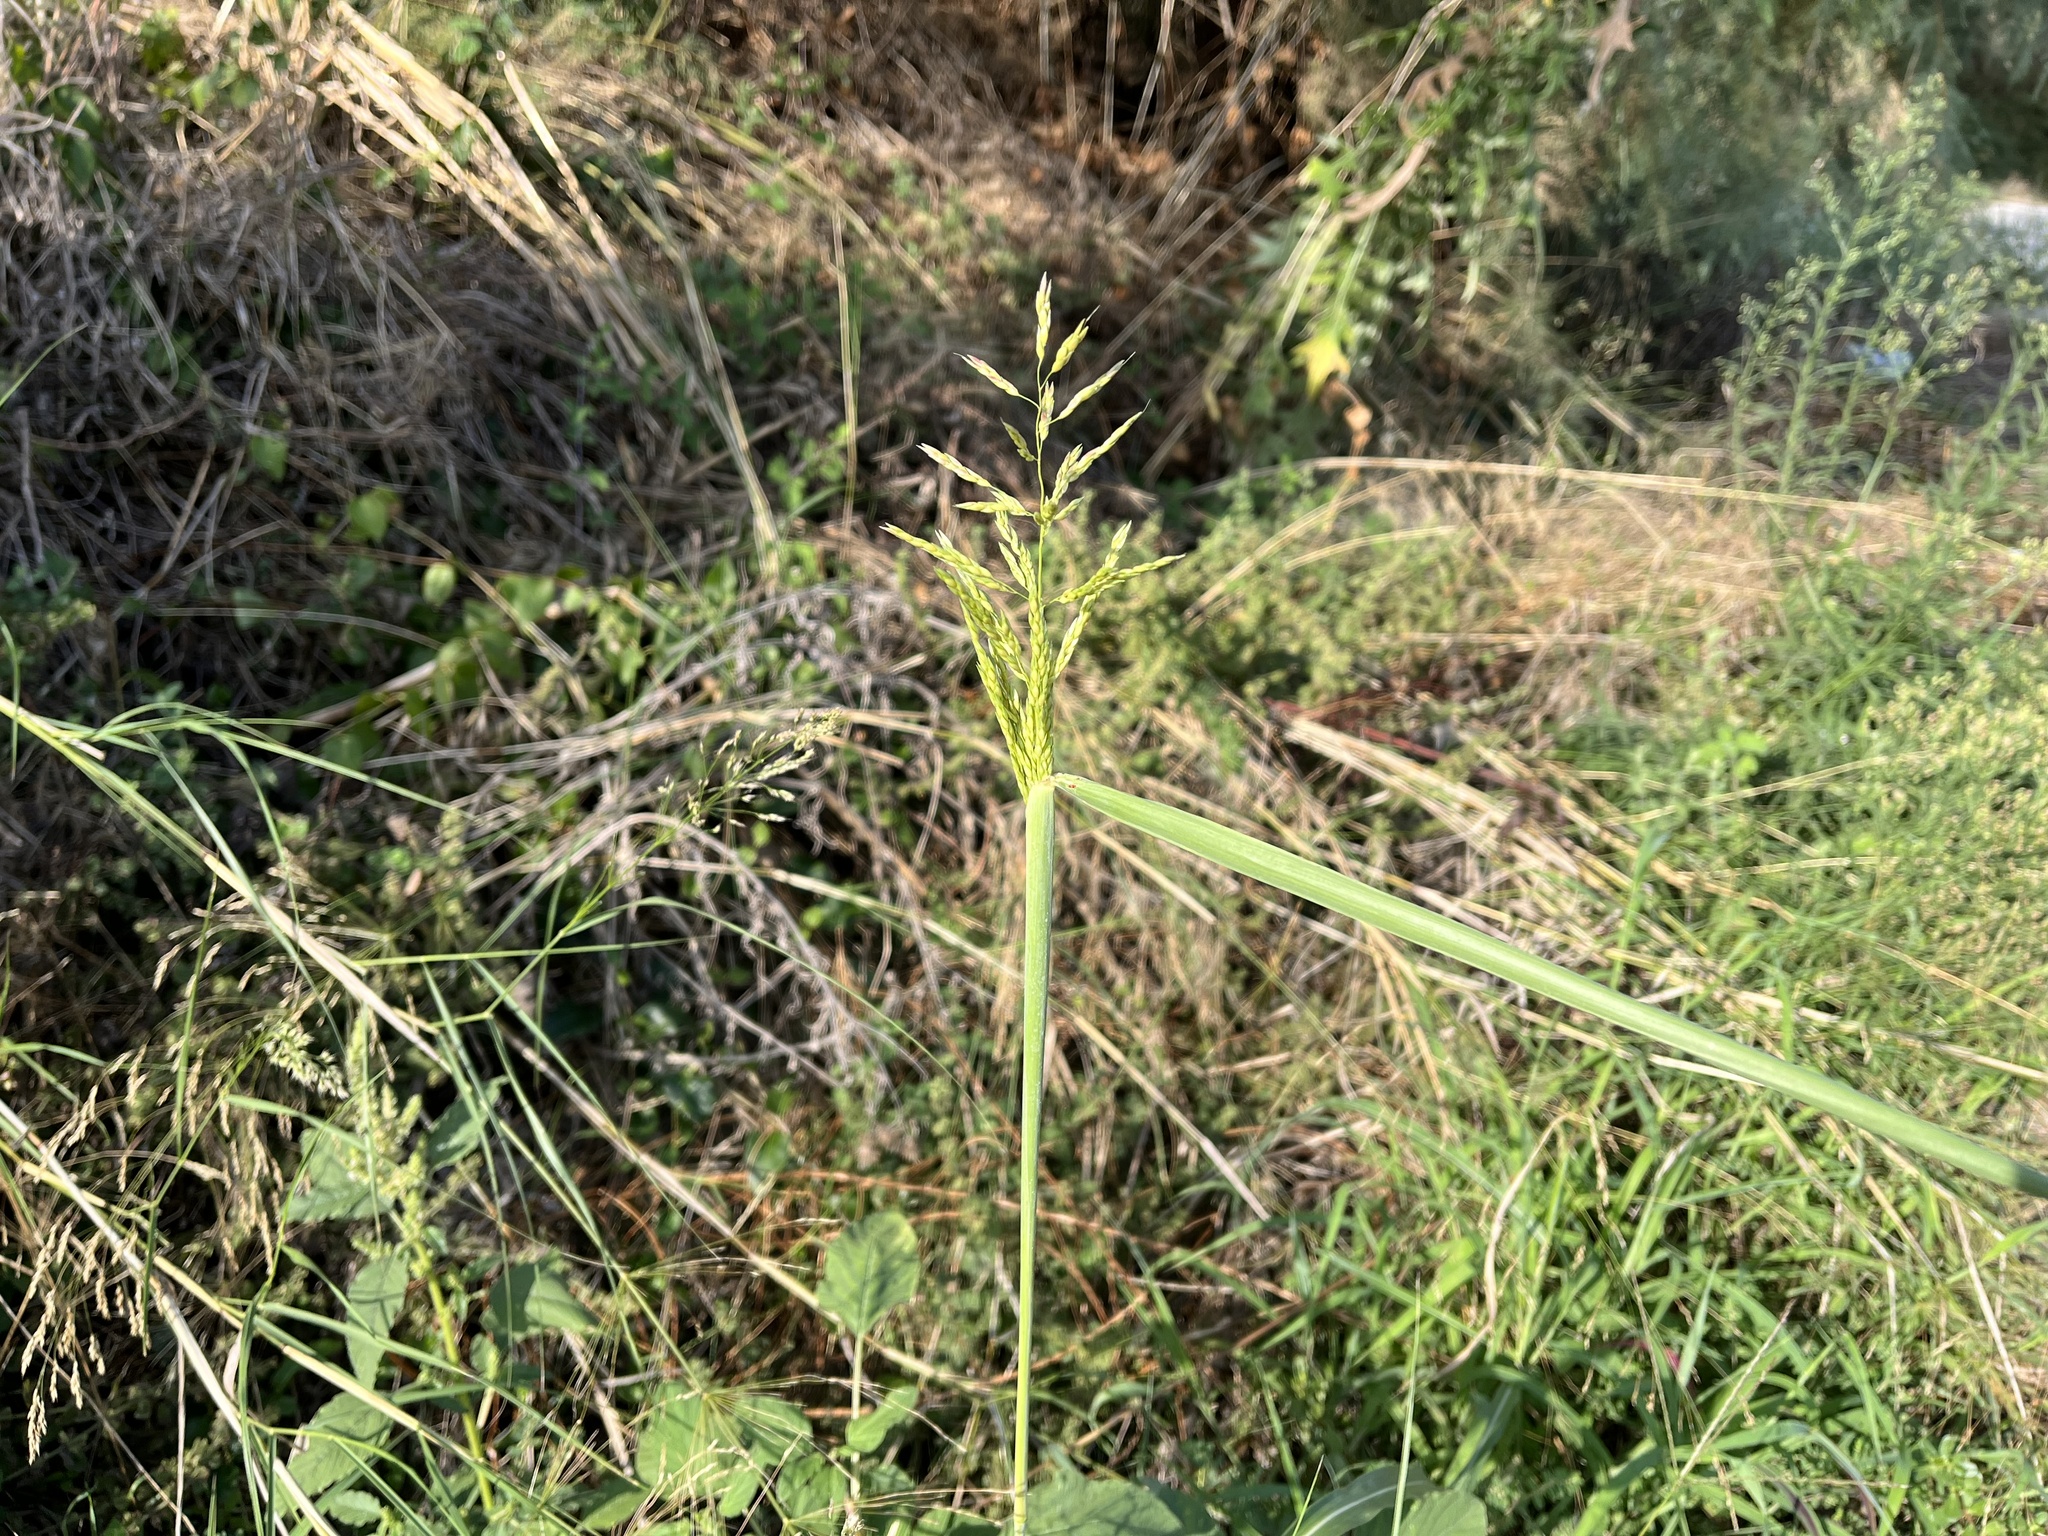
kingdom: Plantae
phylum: Tracheophyta
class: Liliopsida
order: Poales
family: Poaceae
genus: Sorghum
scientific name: Sorghum halepense
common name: Johnson-grass
